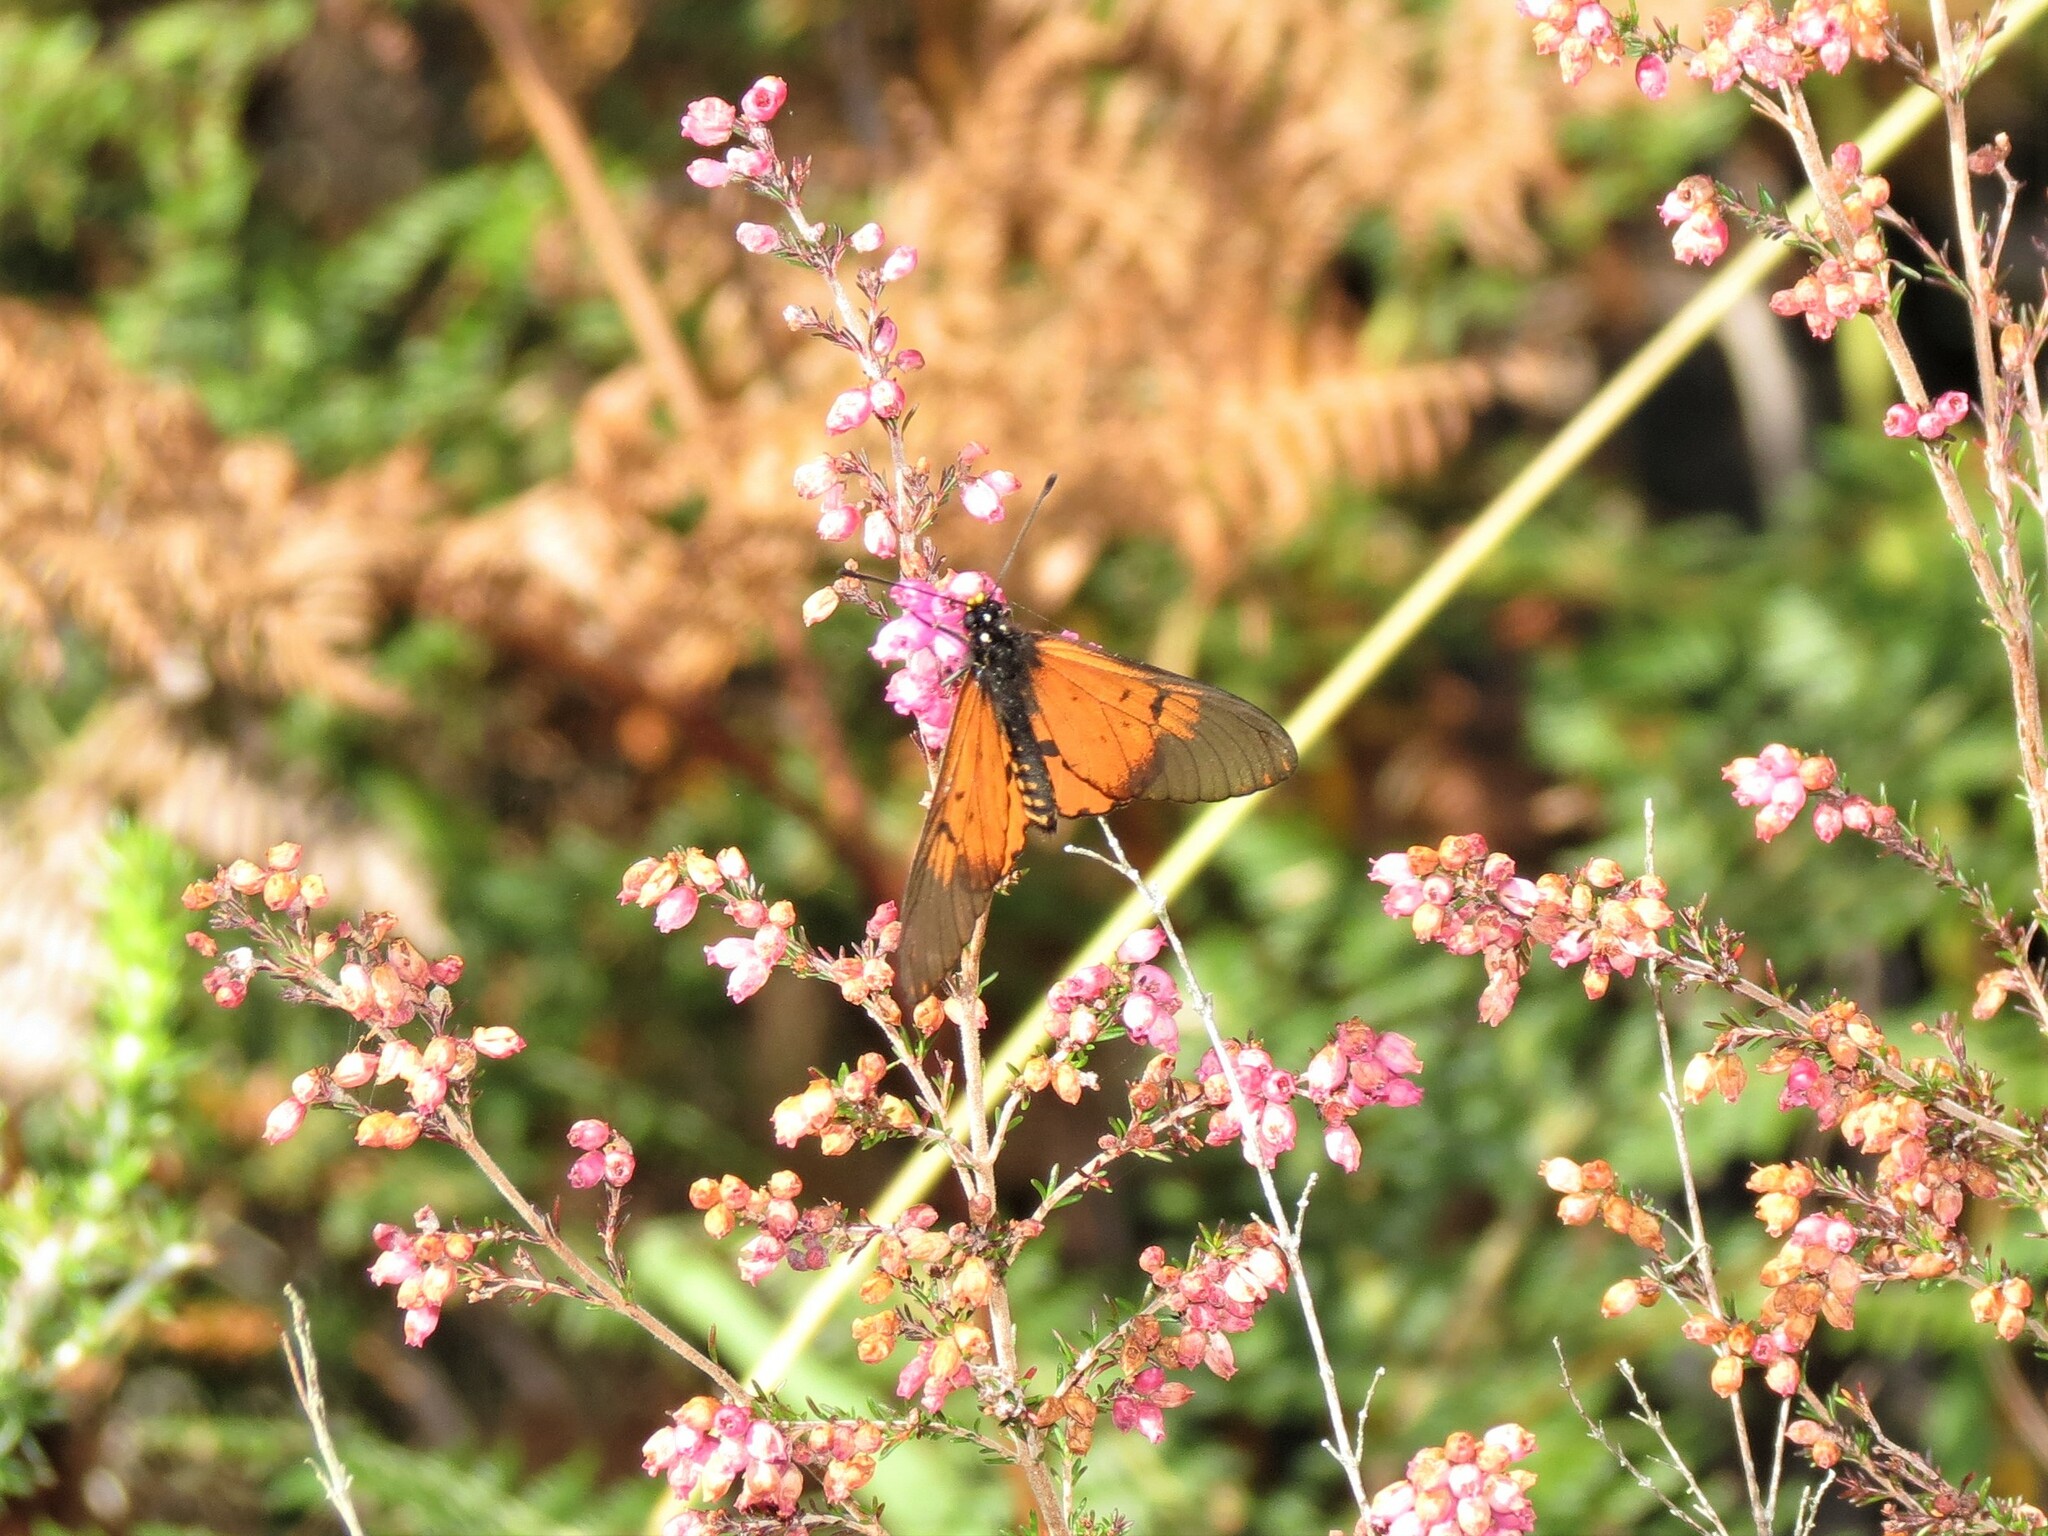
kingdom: Animalia
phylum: Arthropoda
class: Insecta
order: Lepidoptera
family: Nymphalidae
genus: Acraea
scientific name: Acraea horta
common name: Garden acraea
